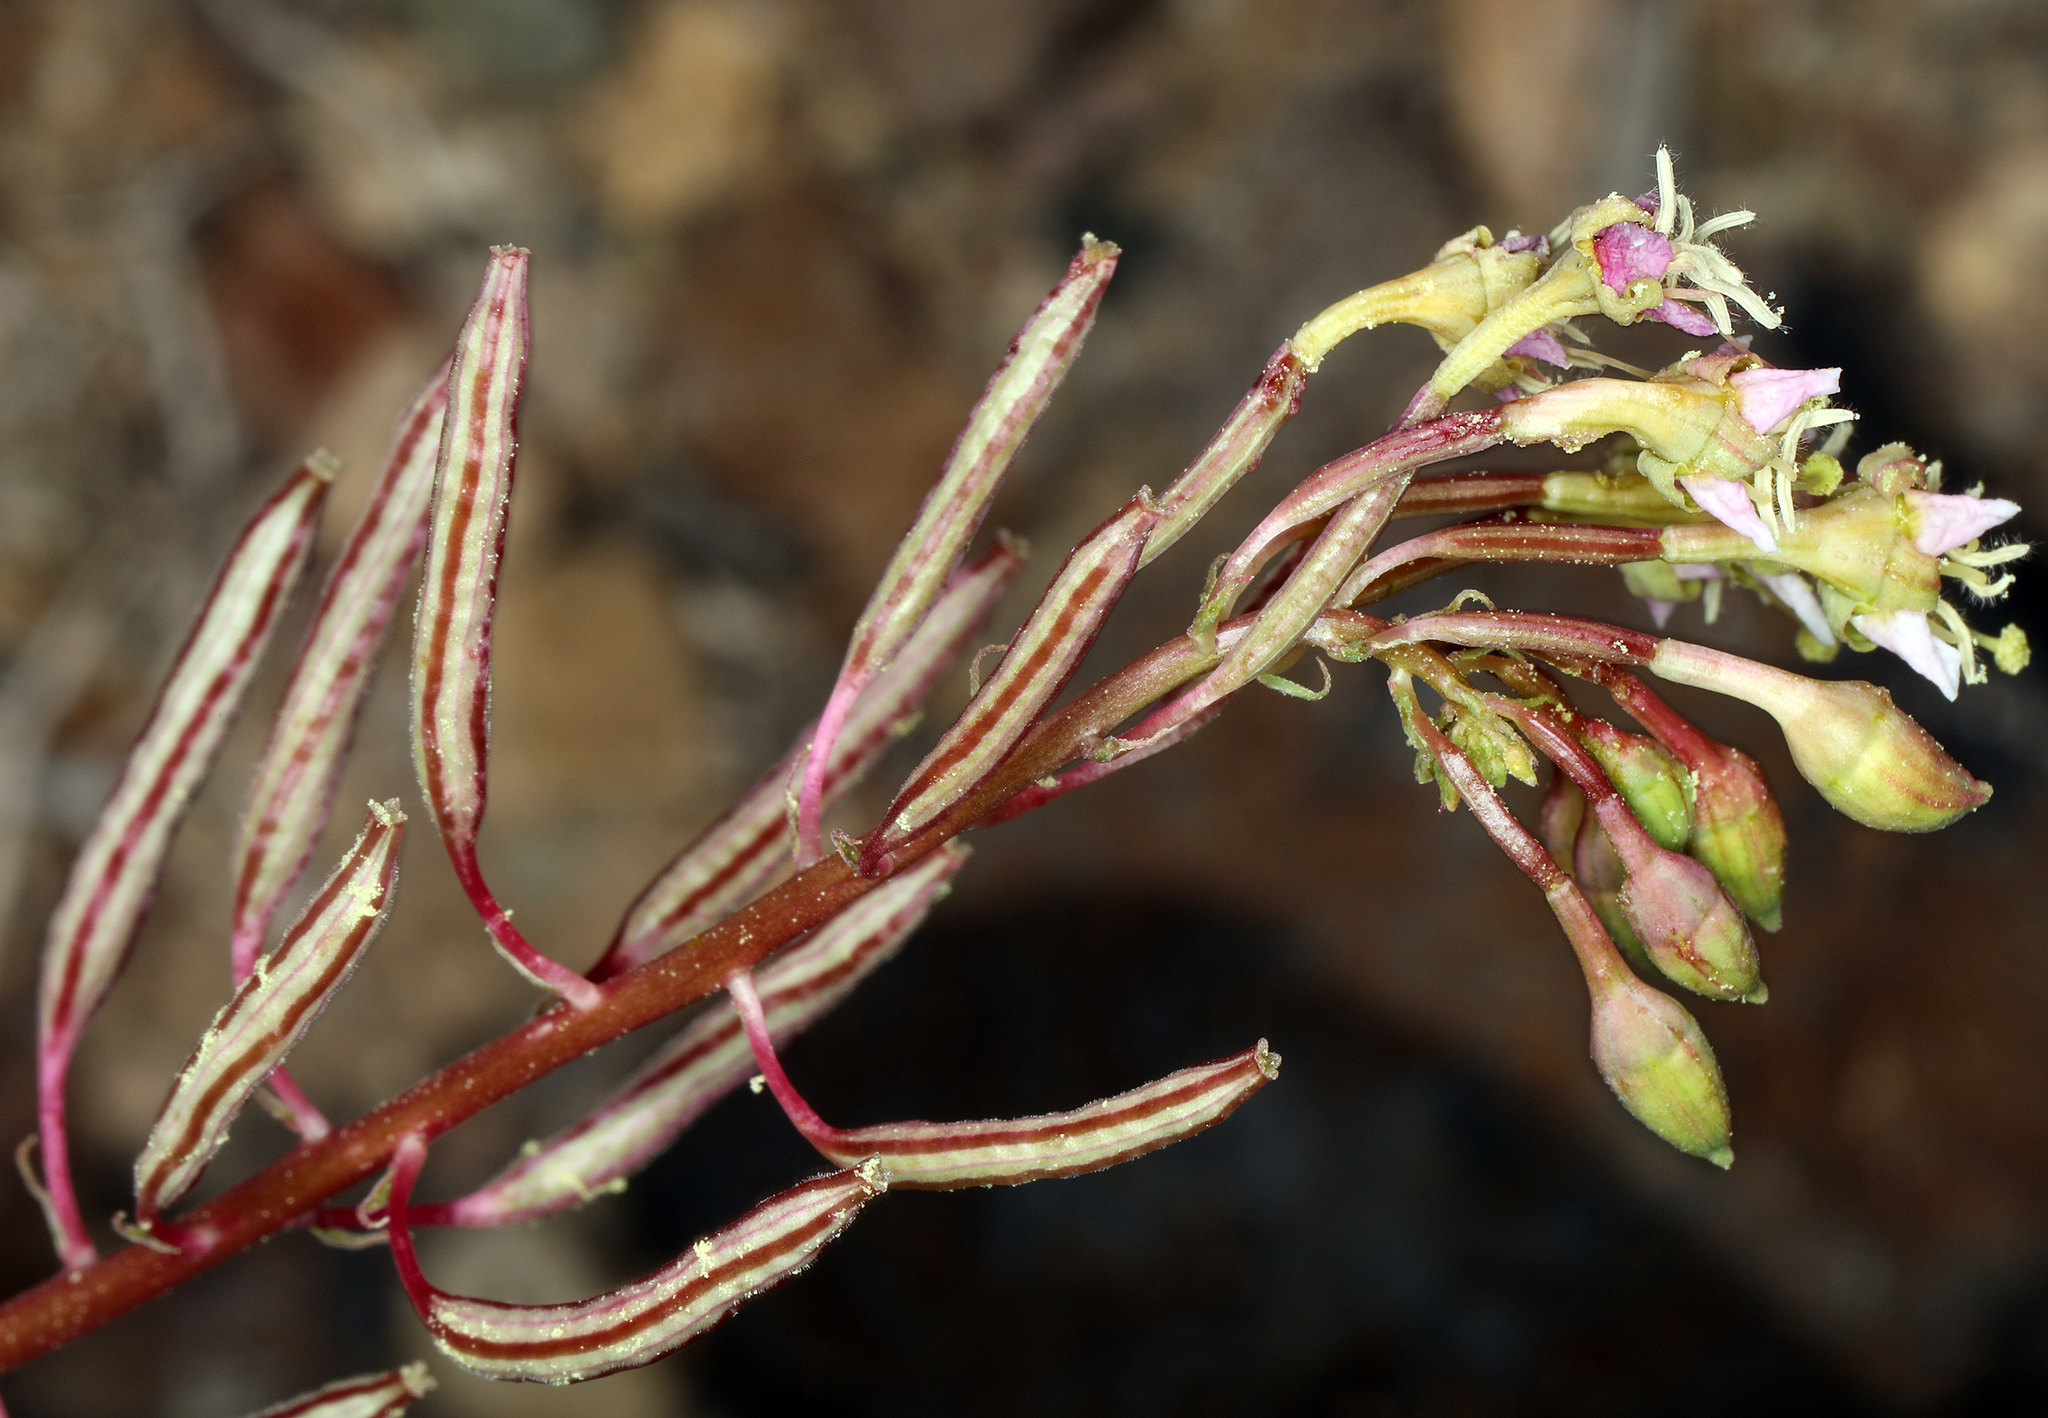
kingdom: Plantae
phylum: Tracheophyta
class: Magnoliopsida
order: Myrtales
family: Onagraceae
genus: Chylismia
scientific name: Chylismia claviformis
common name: Browneyes
